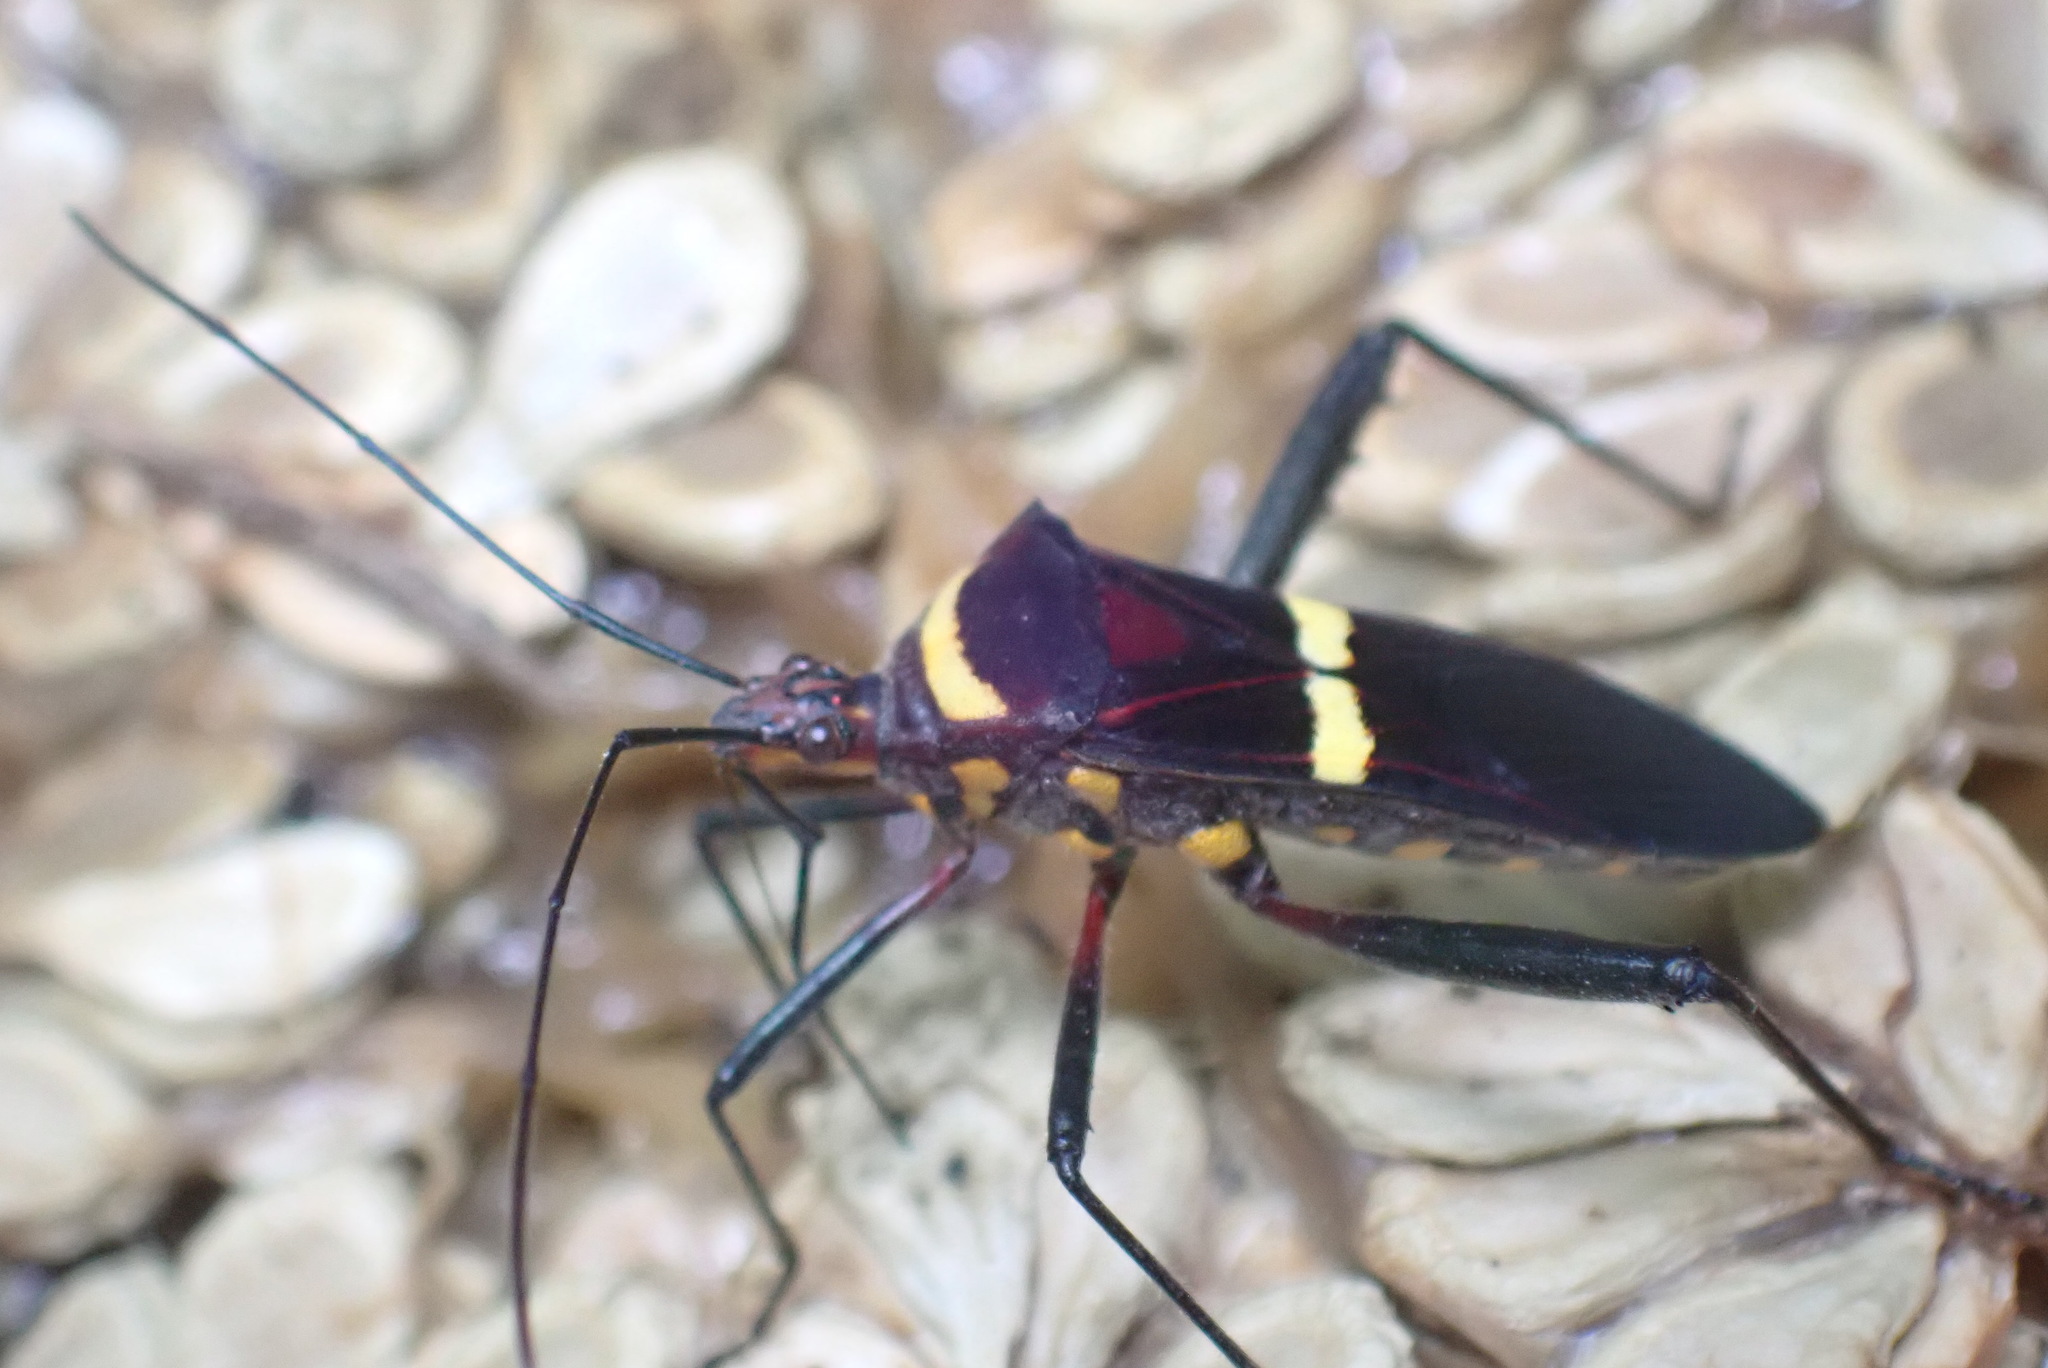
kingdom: Animalia
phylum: Arthropoda
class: Insecta
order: Hemiptera
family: Coreidae
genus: Phthia
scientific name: Phthia lunata
